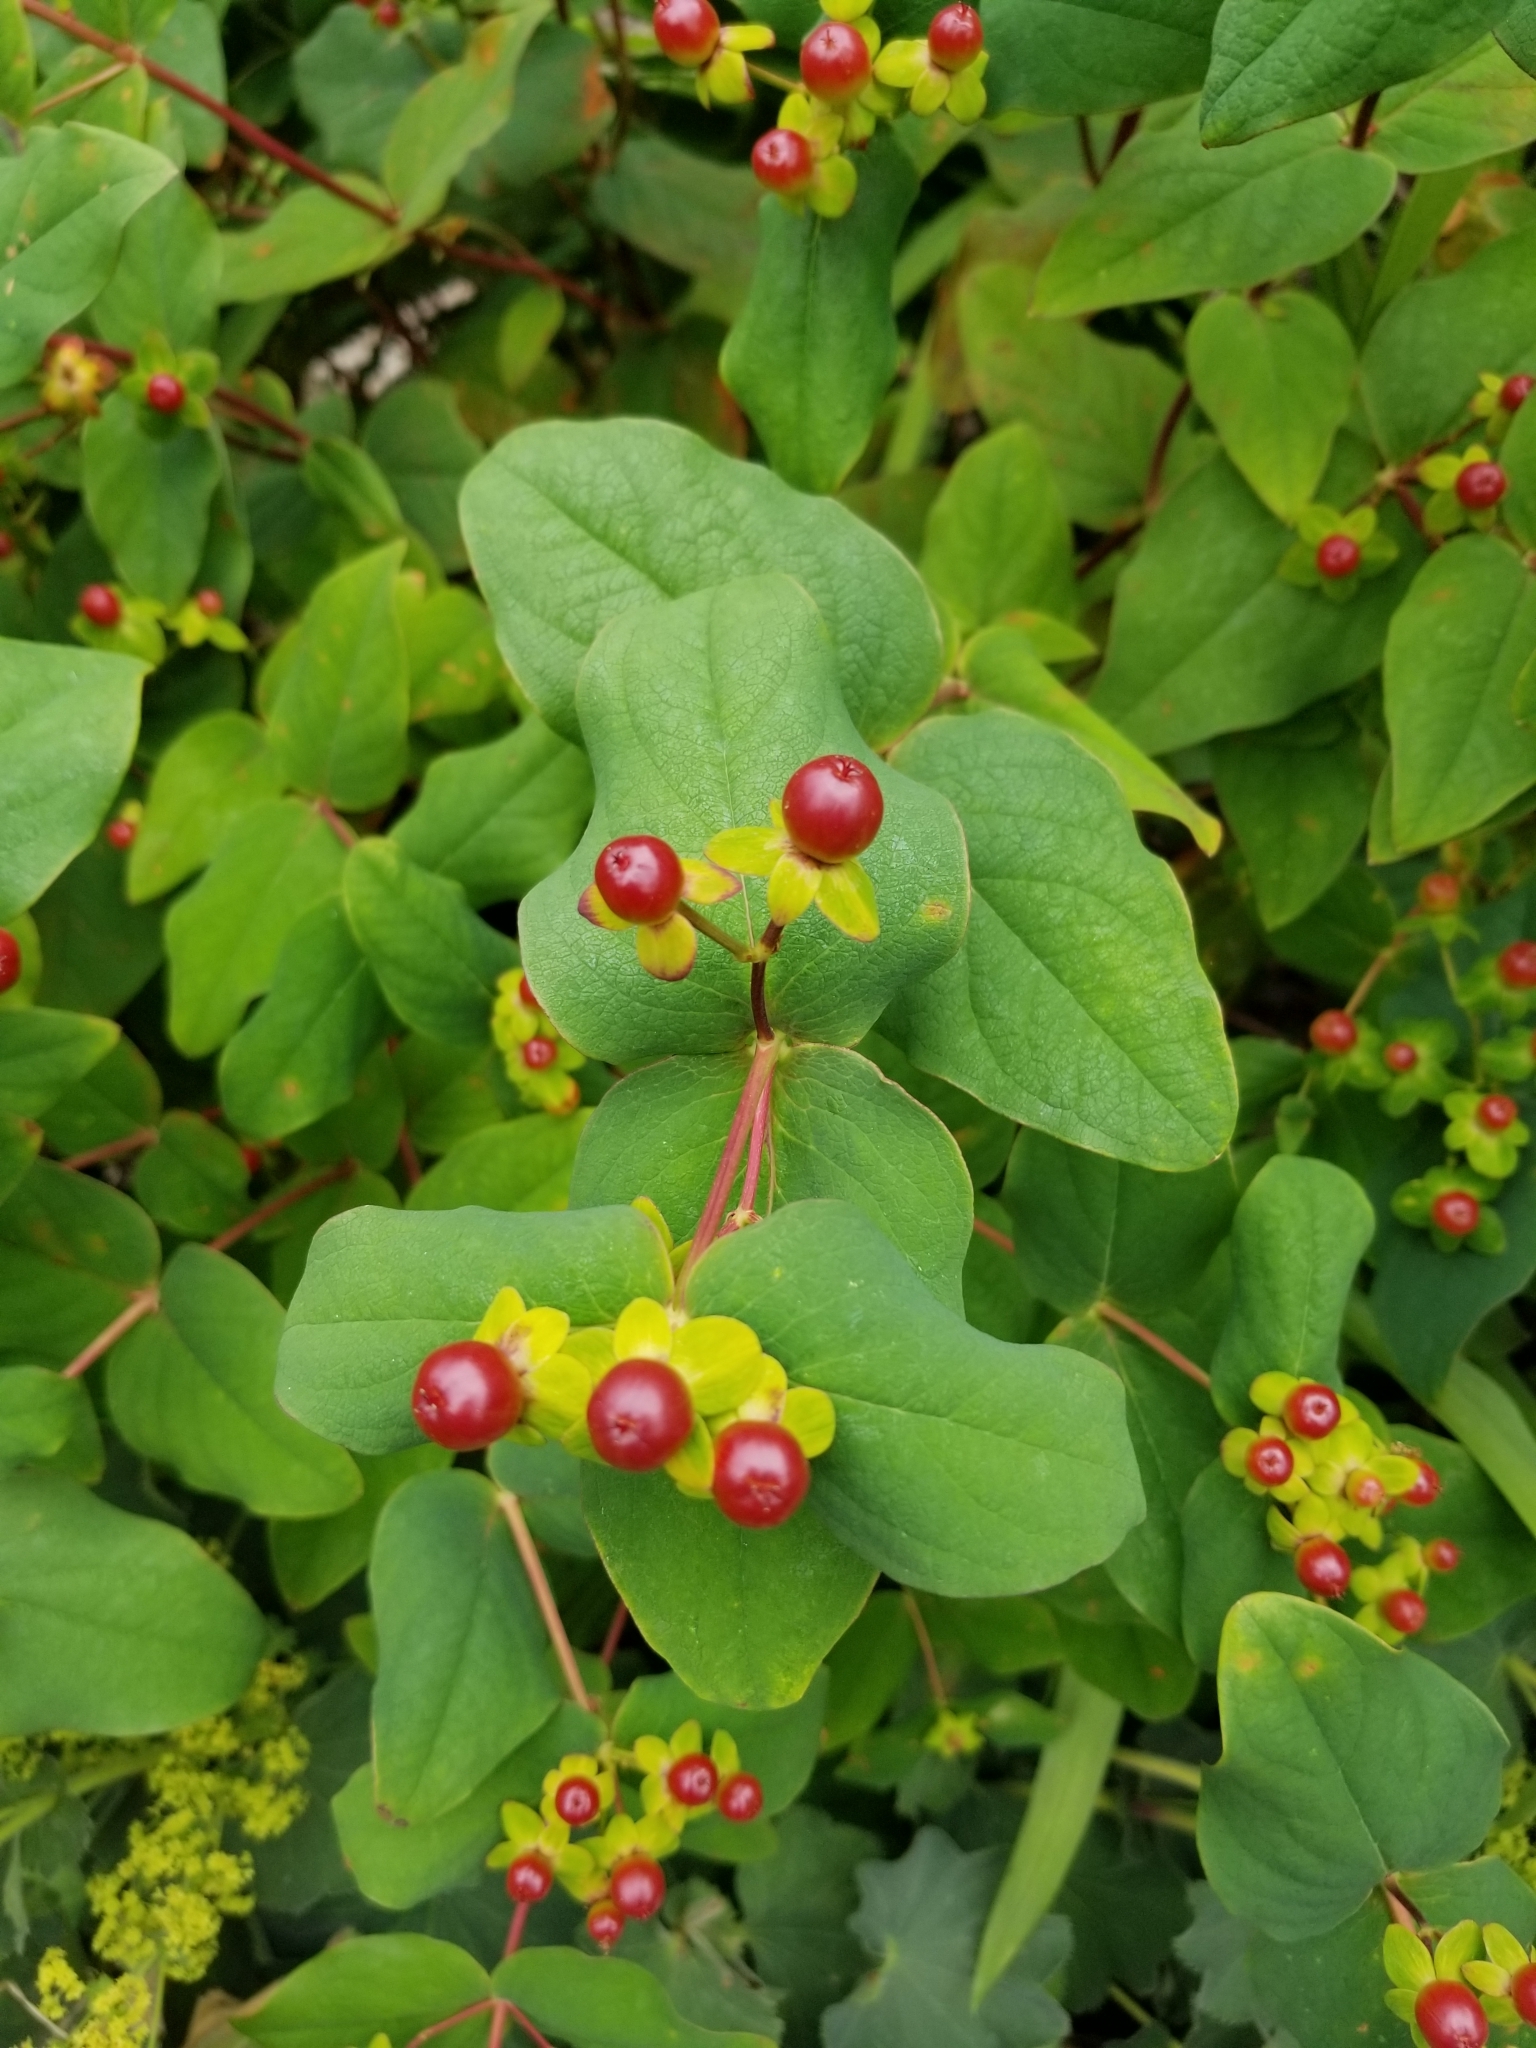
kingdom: Plantae
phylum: Tracheophyta
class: Magnoliopsida
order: Malpighiales
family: Hypericaceae
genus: Hypericum
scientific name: Hypericum androsaemum
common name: Sweet-amber
